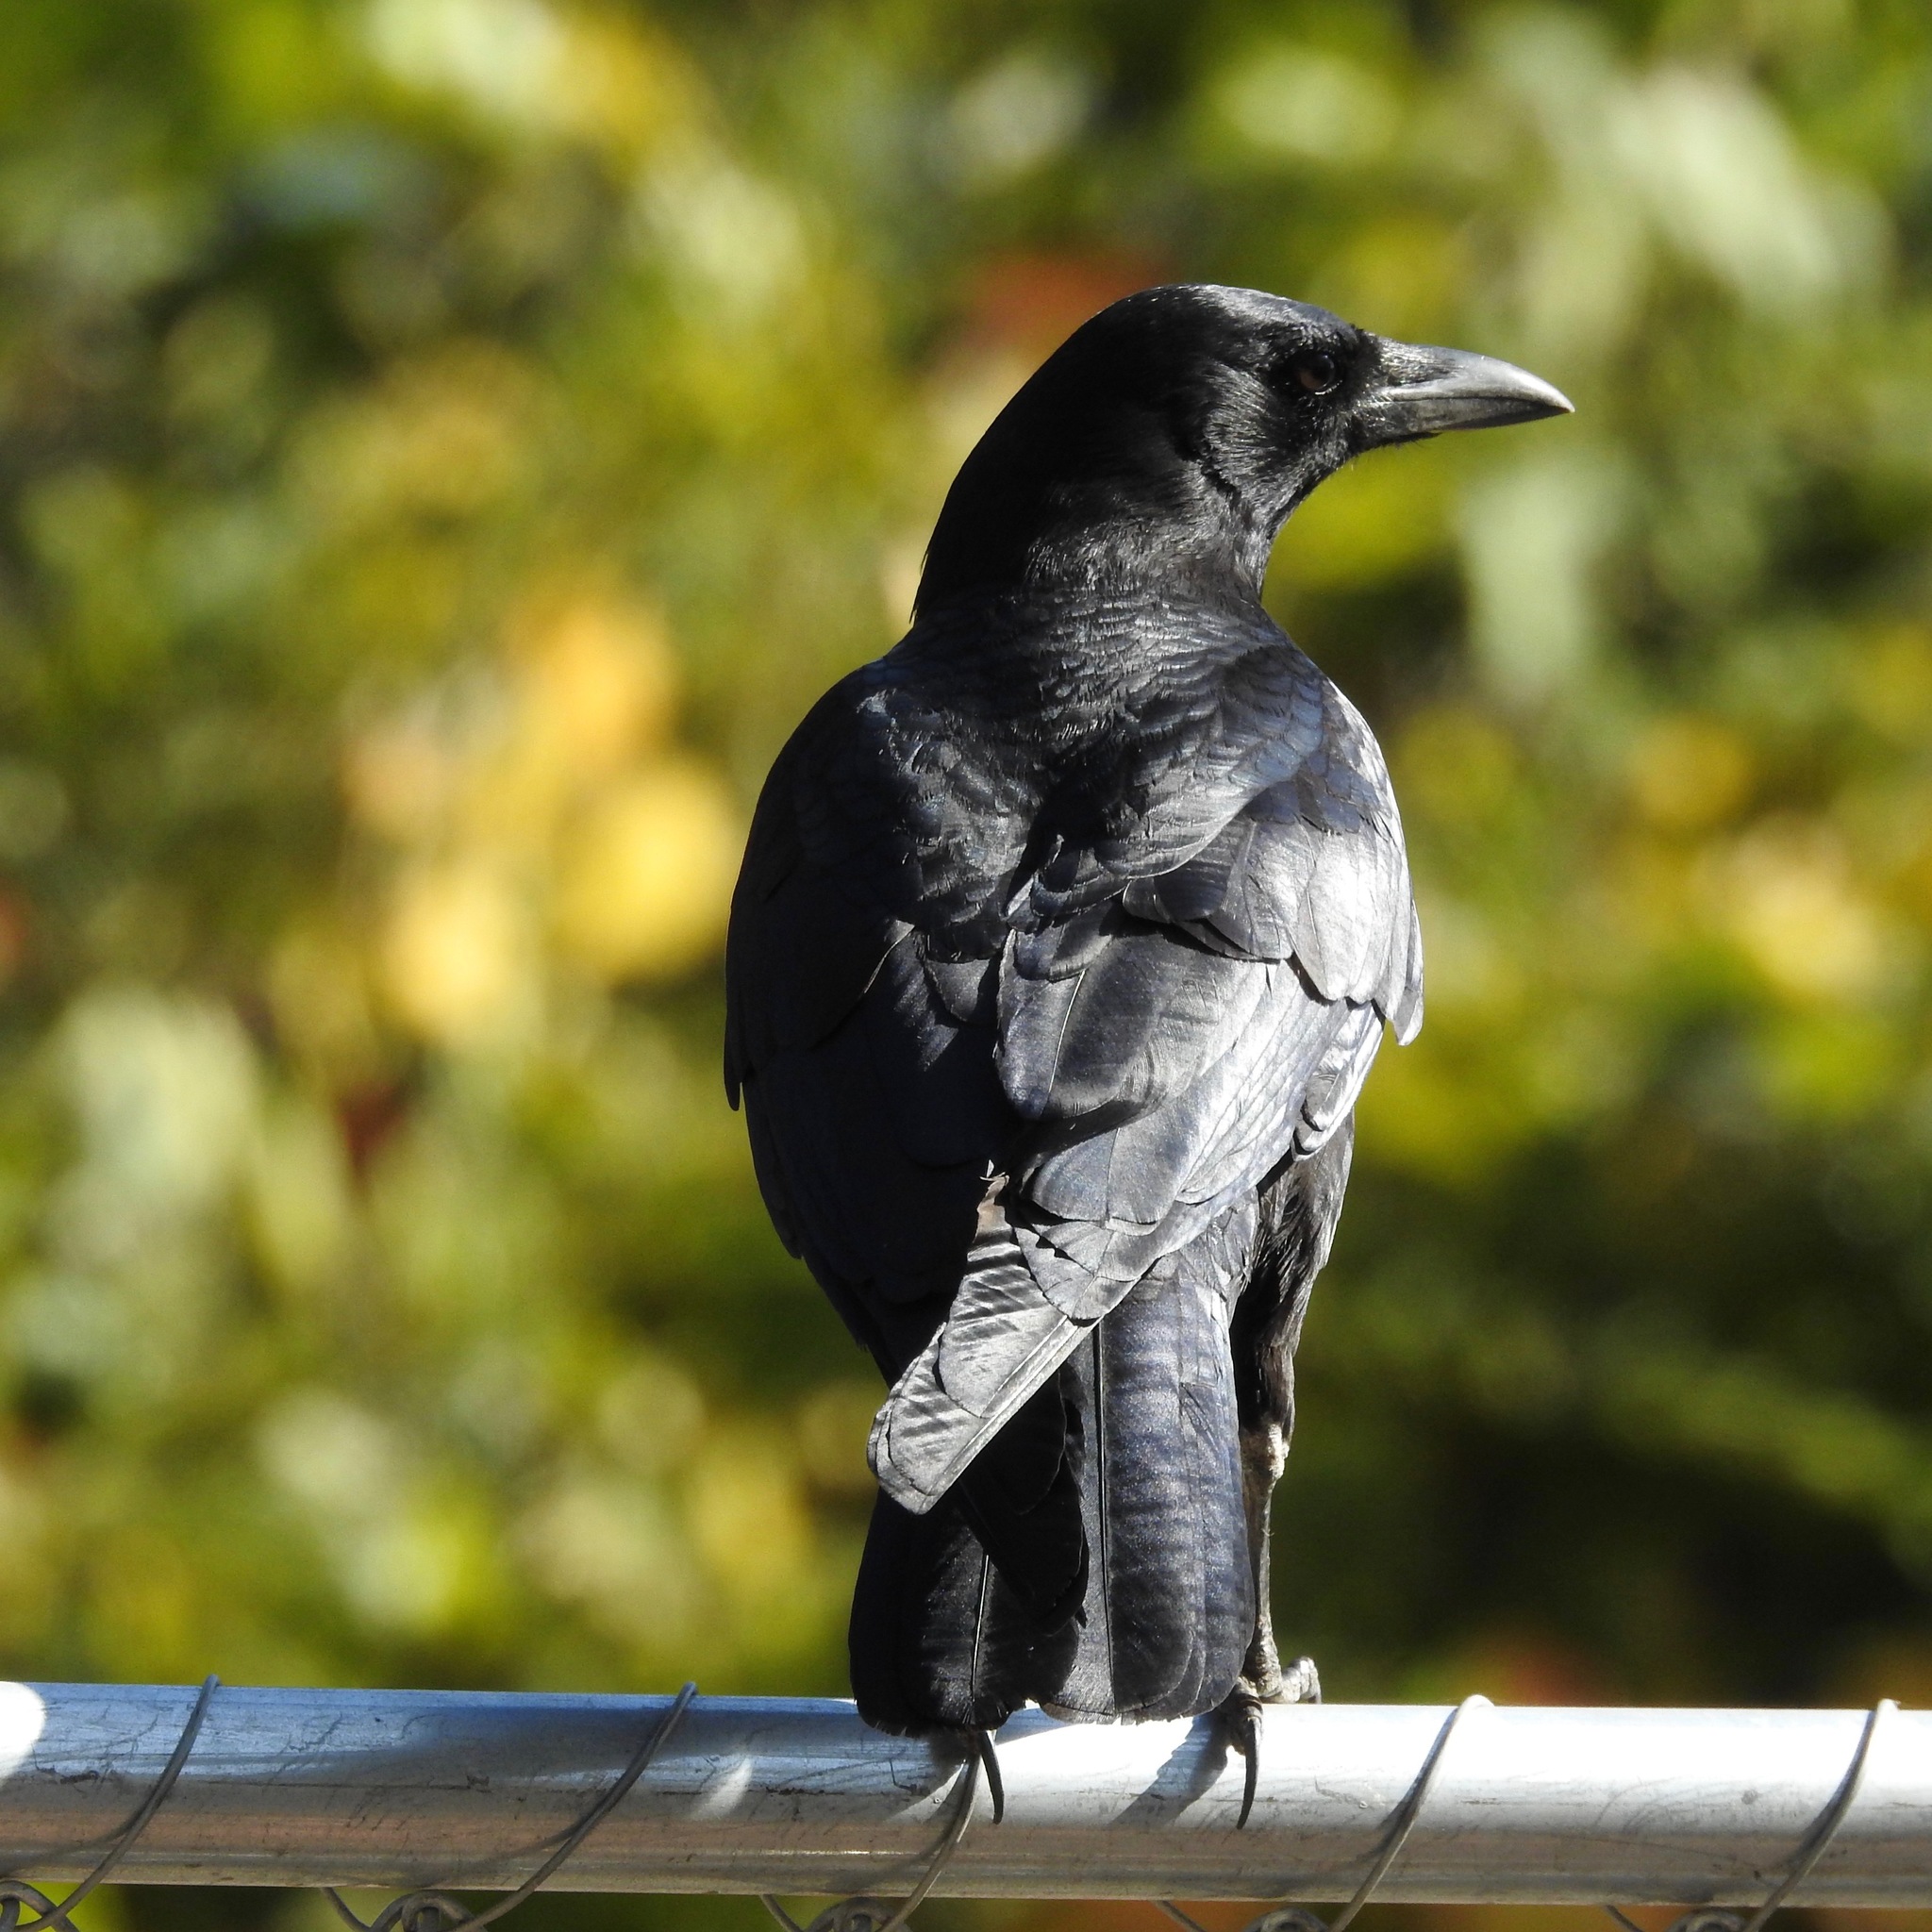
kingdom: Animalia
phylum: Chordata
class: Aves
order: Passeriformes
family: Corvidae
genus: Corvus
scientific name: Corvus brachyrhynchos
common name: American crow
